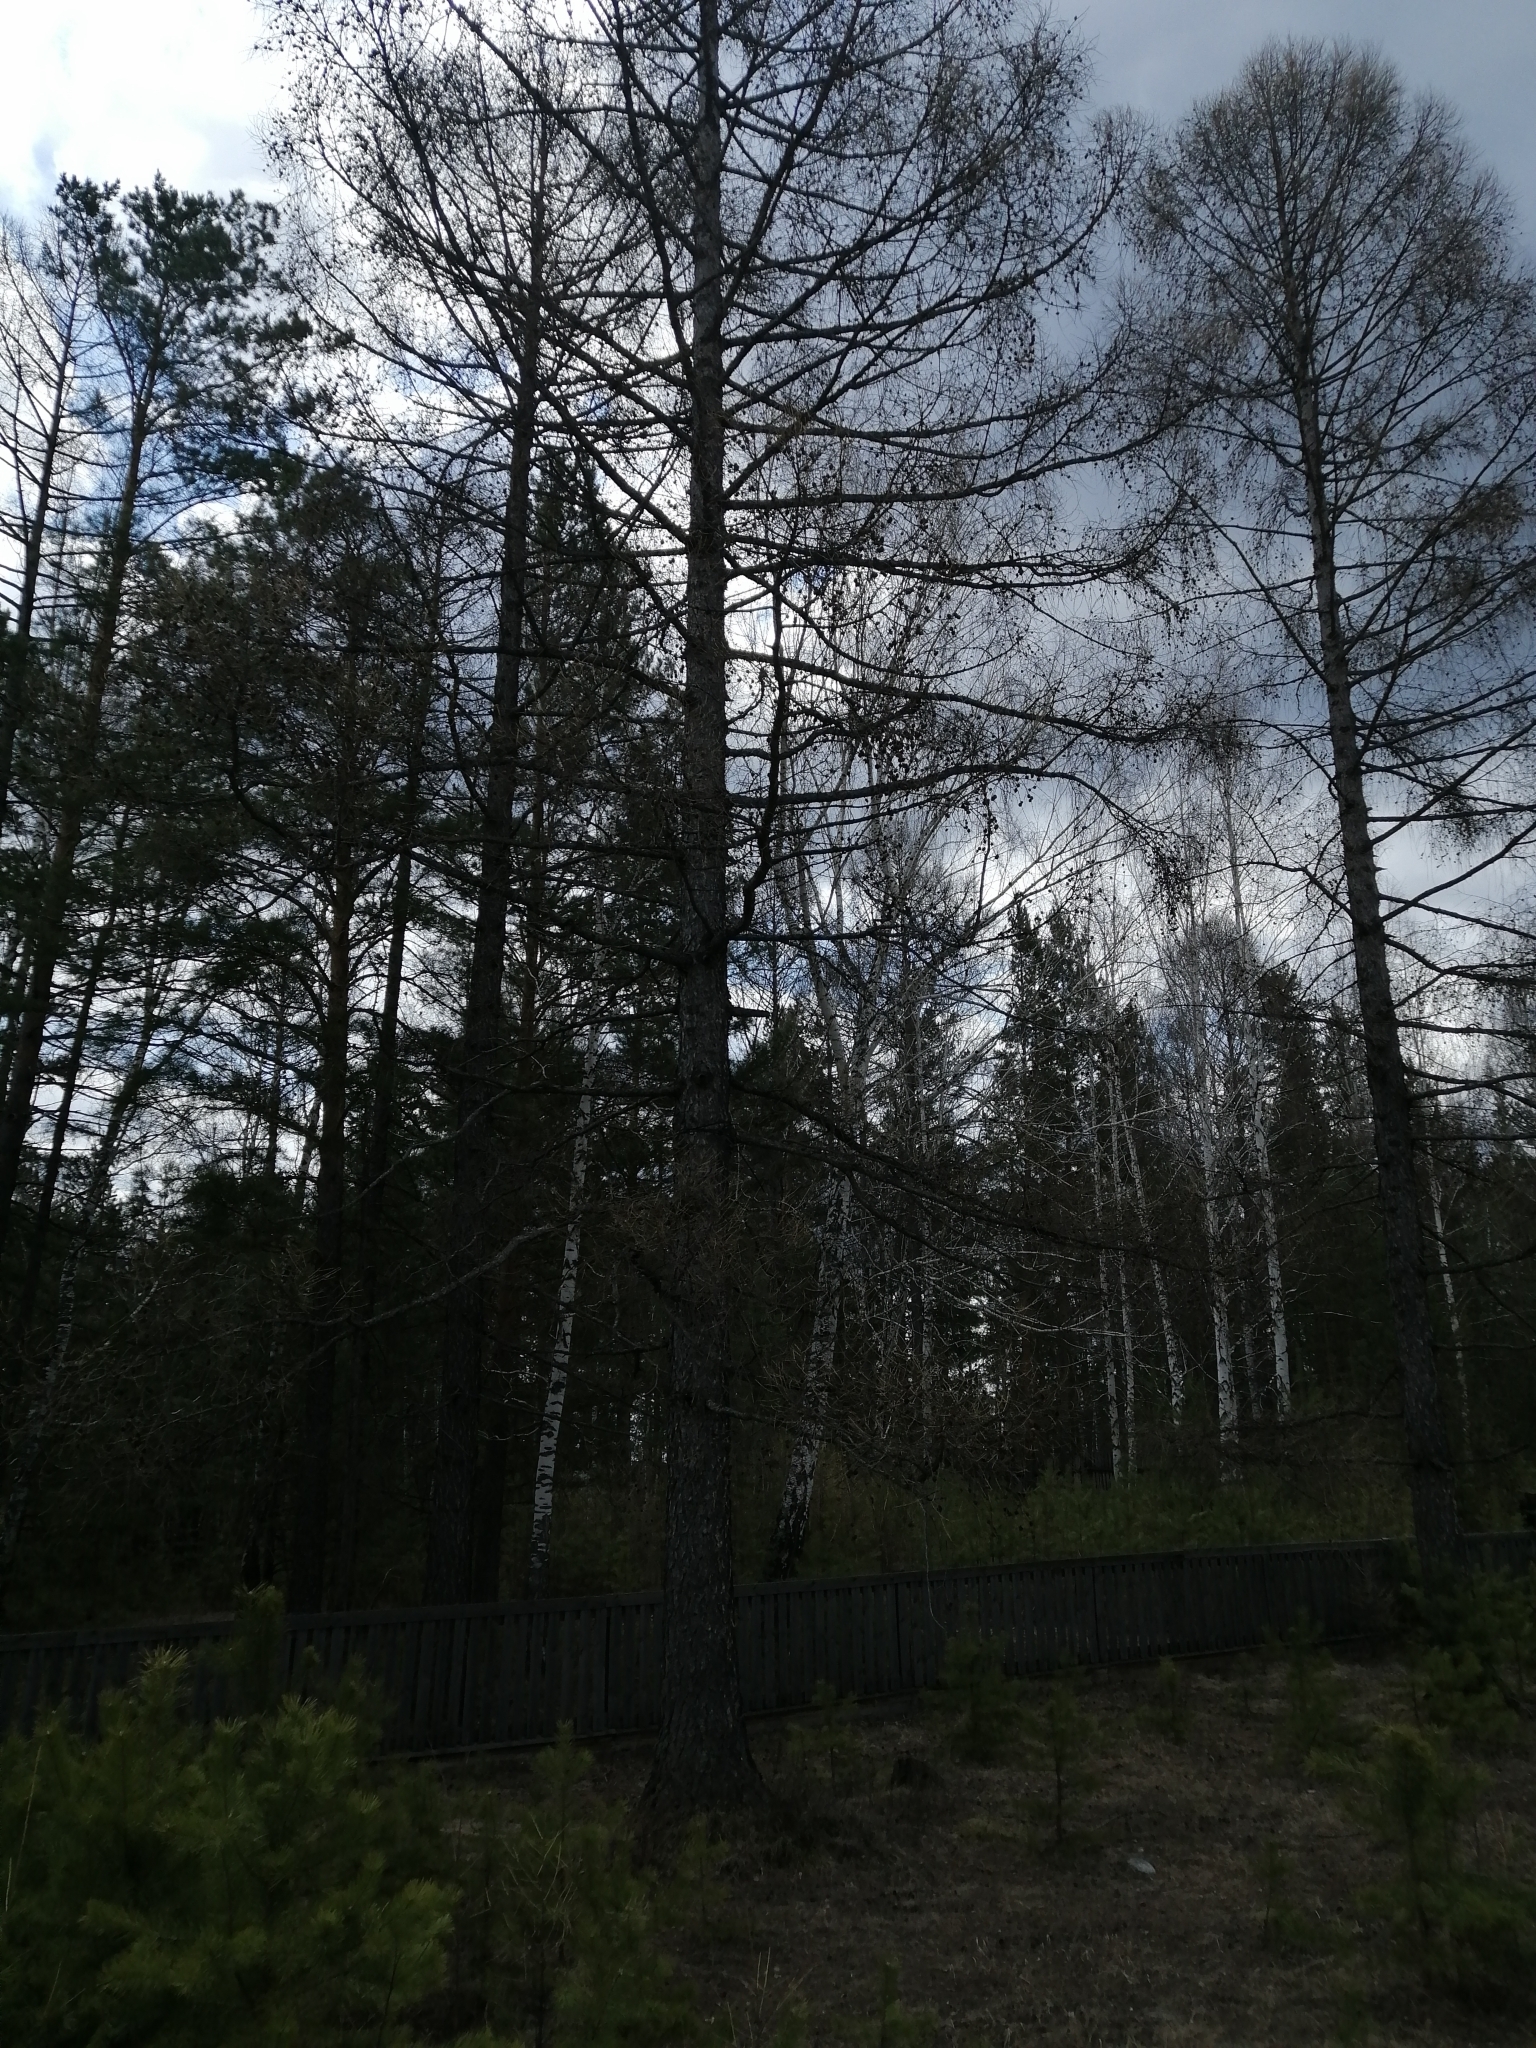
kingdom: Plantae
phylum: Tracheophyta
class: Pinopsida
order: Pinales
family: Pinaceae
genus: Larix
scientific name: Larix sibirica
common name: Siberian larch
